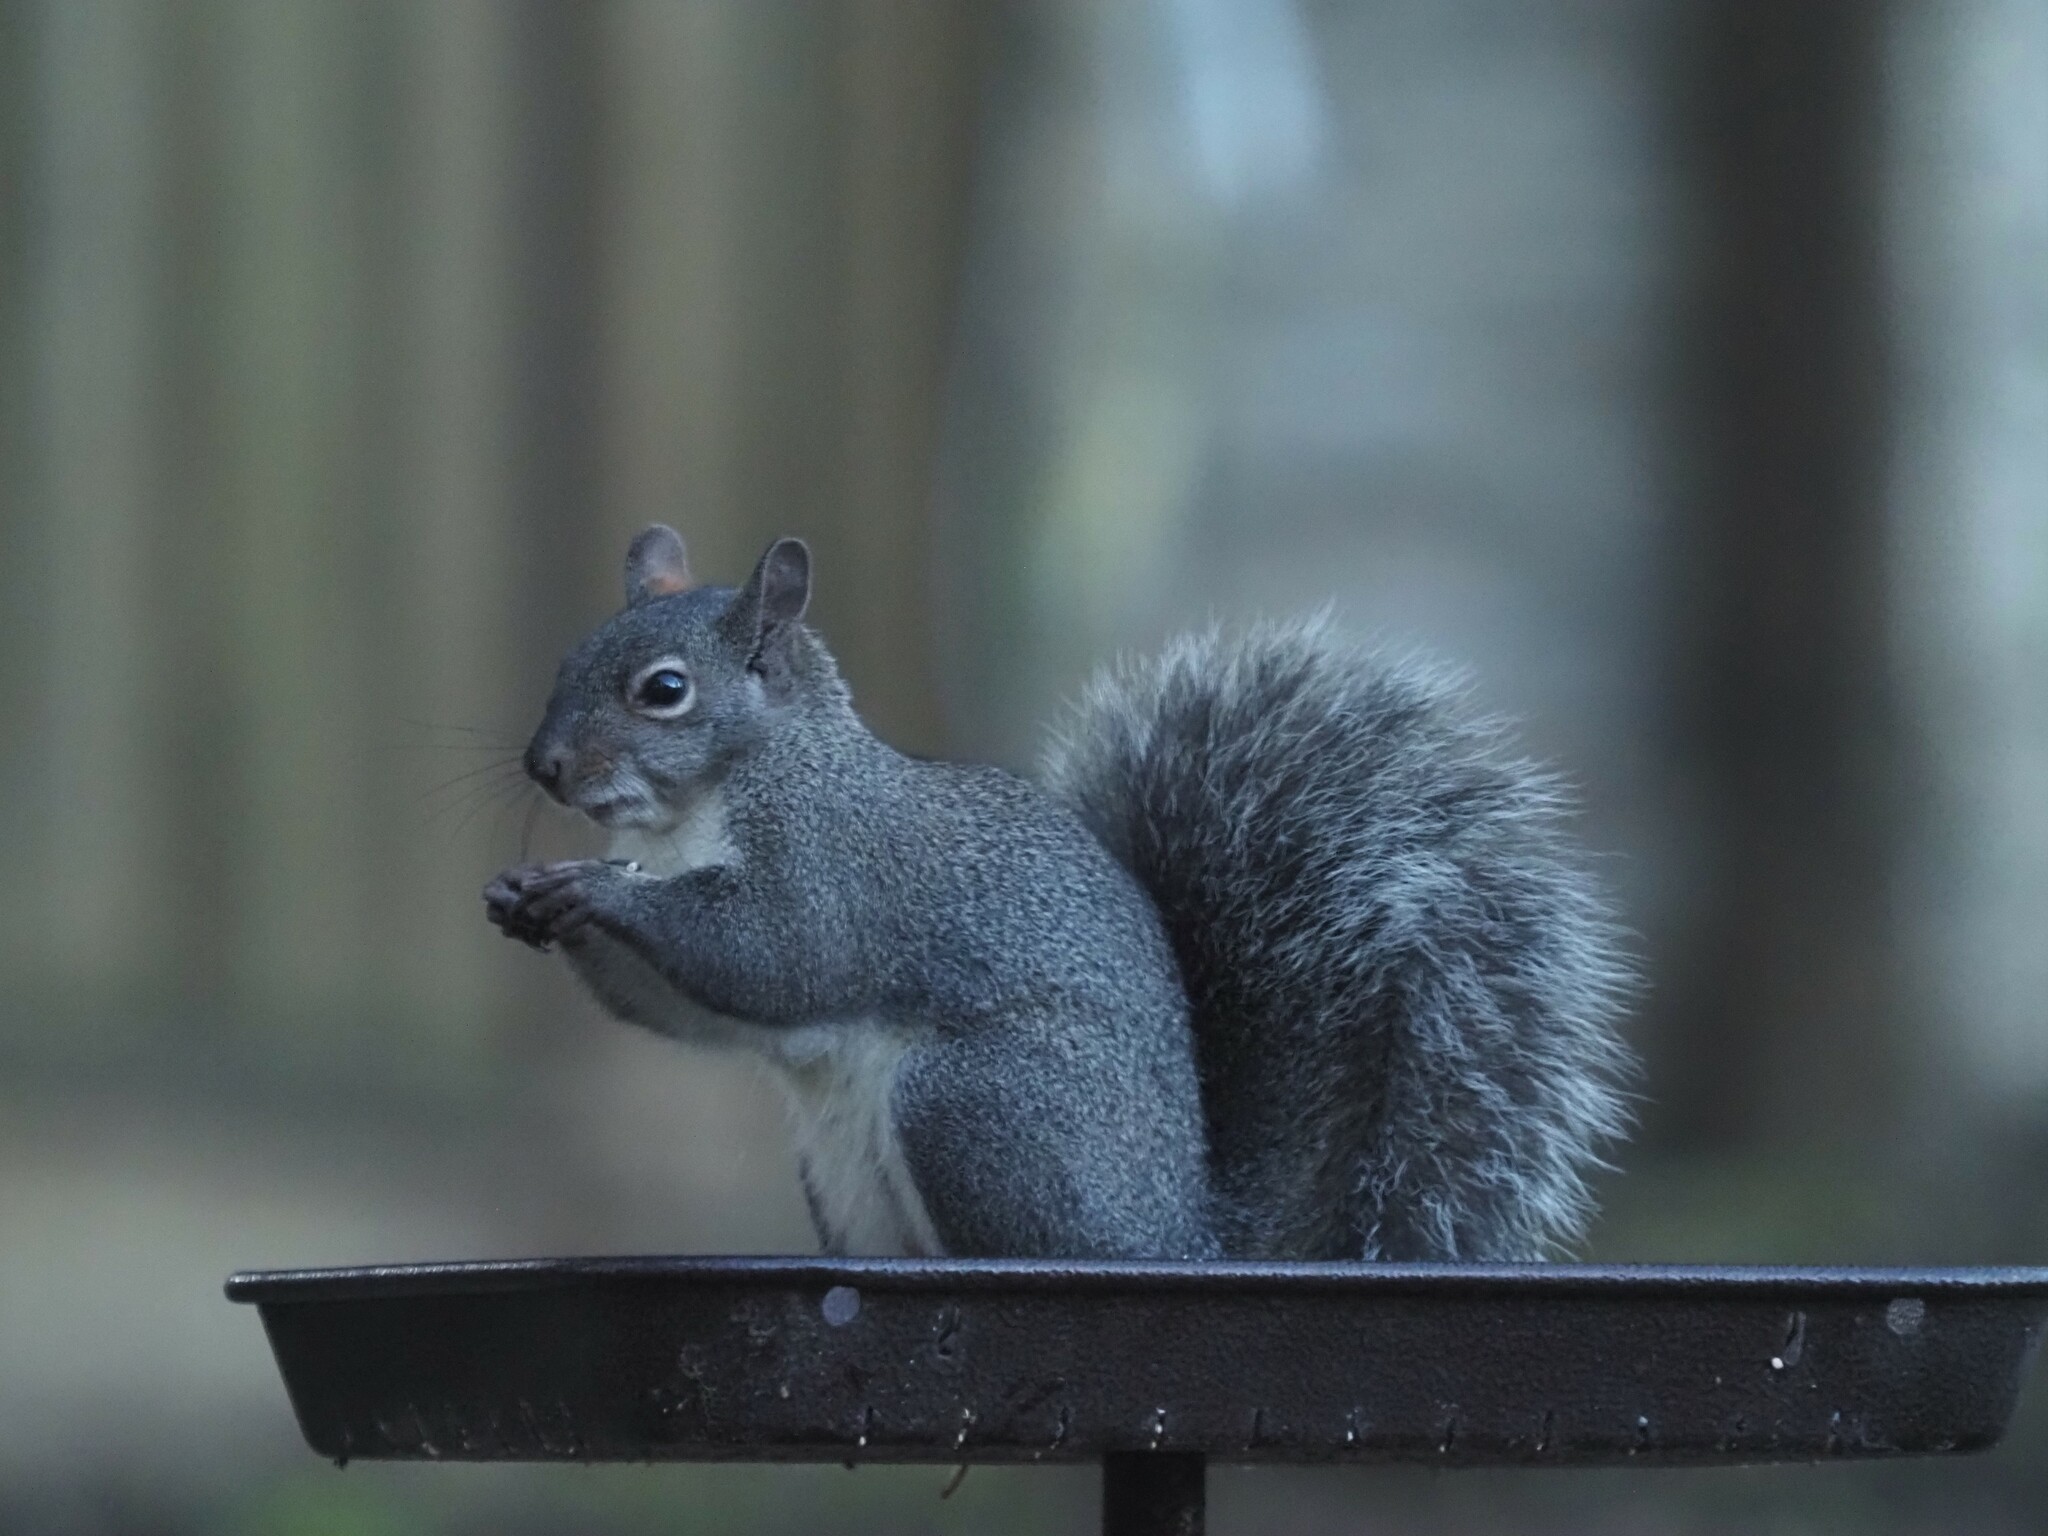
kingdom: Animalia
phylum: Chordata
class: Mammalia
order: Rodentia
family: Sciuridae
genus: Sciurus
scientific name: Sciurus griseus
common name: Western gray squirrel
